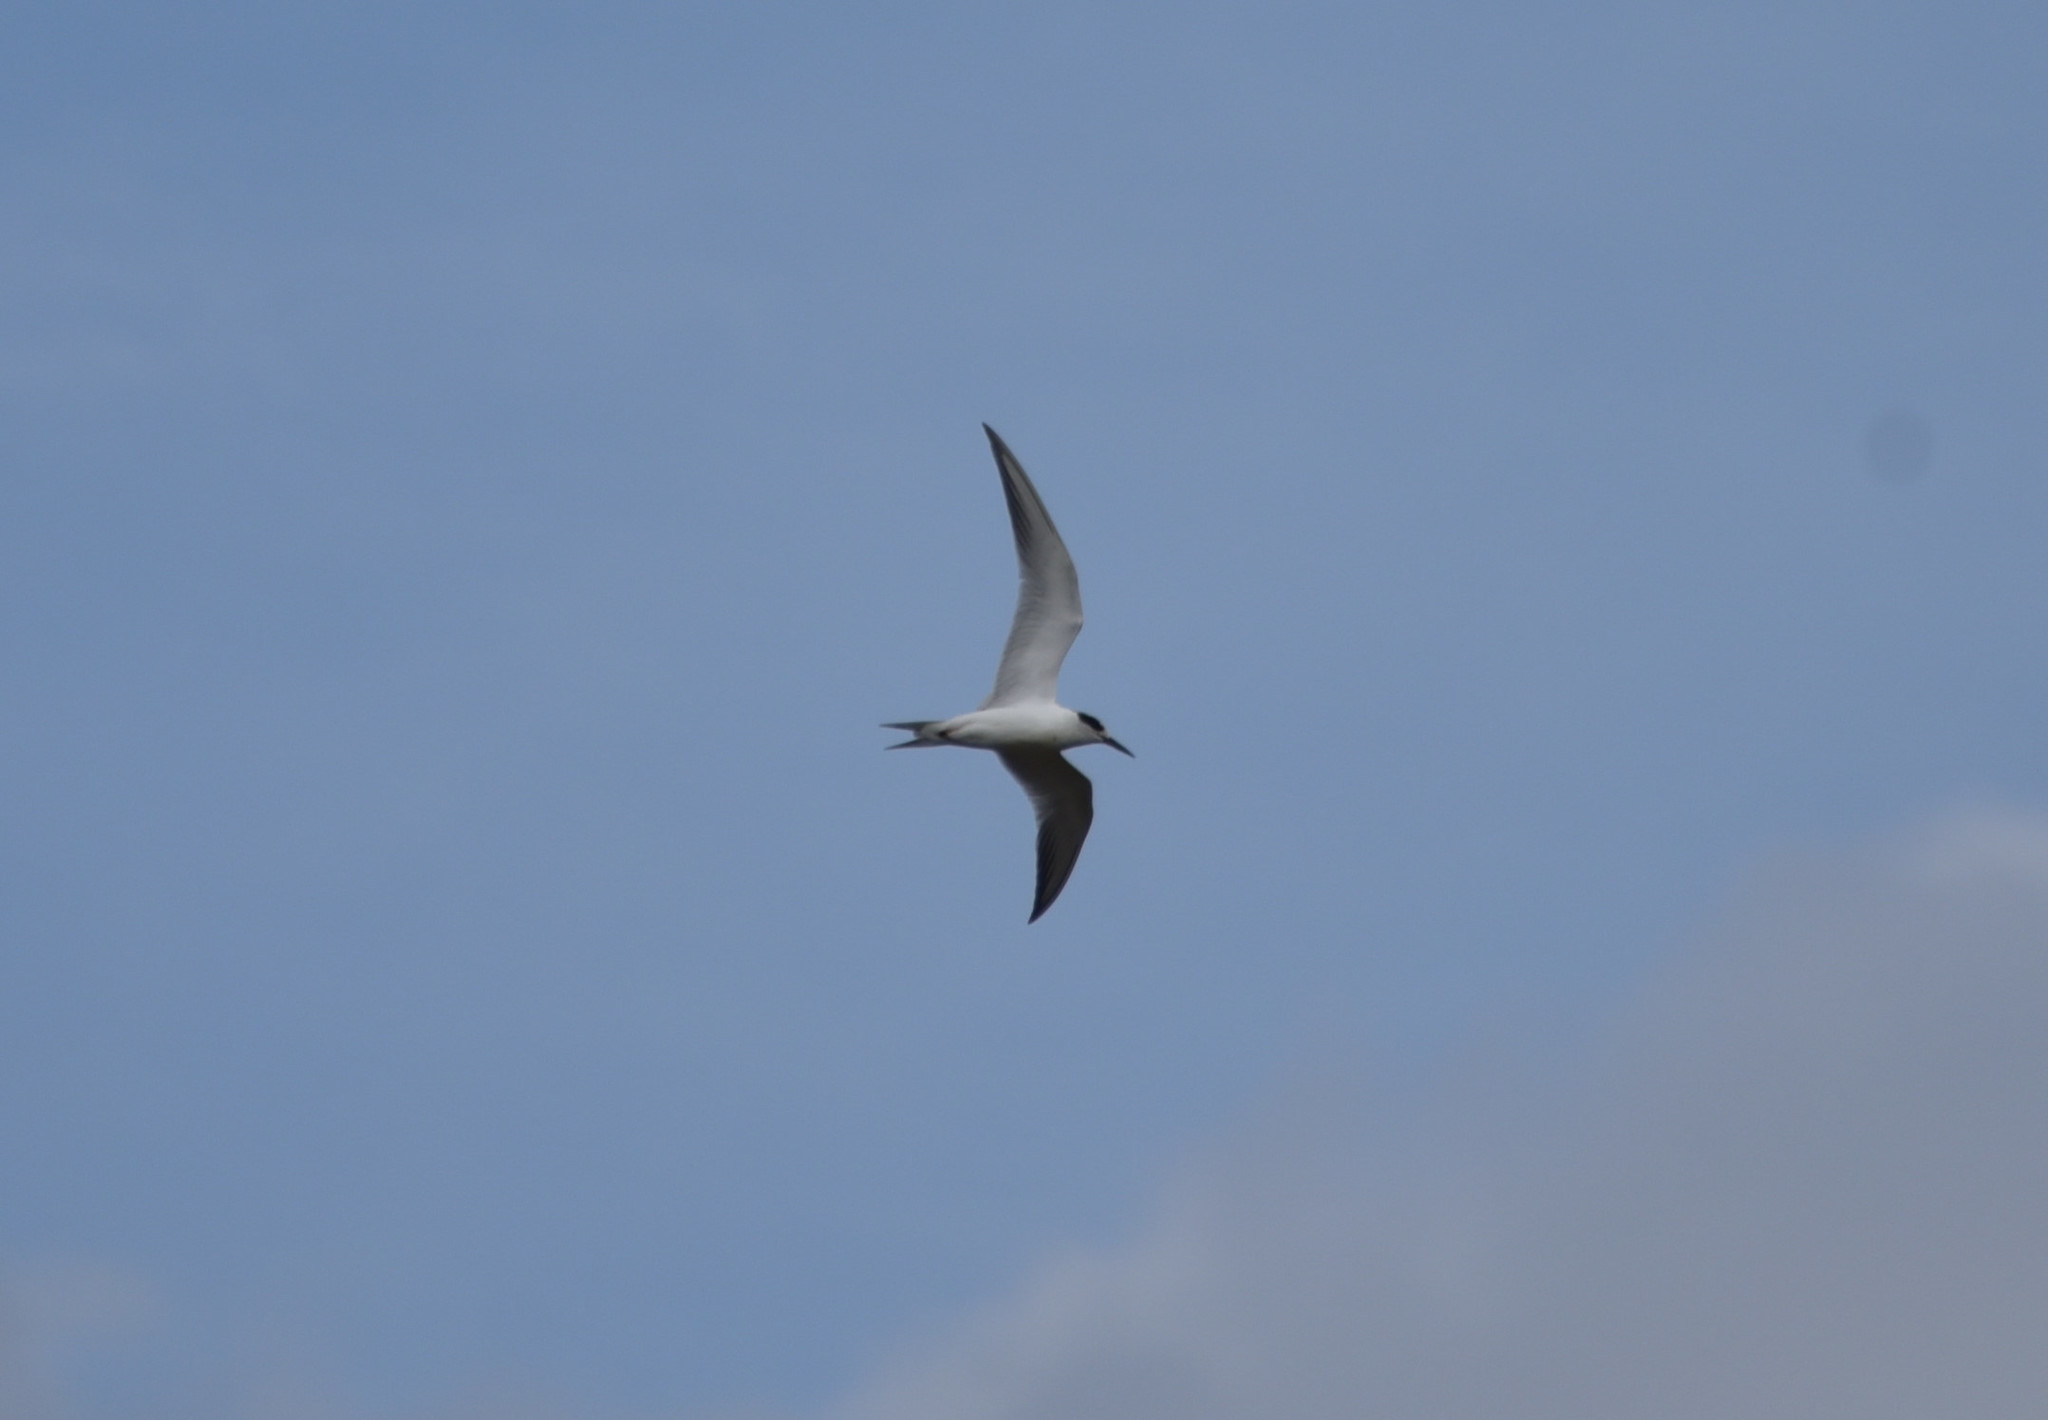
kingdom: Animalia
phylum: Chordata
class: Aves
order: Charadriiformes
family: Laridae
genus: Sterna
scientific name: Sterna forsteri
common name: Forster's tern
